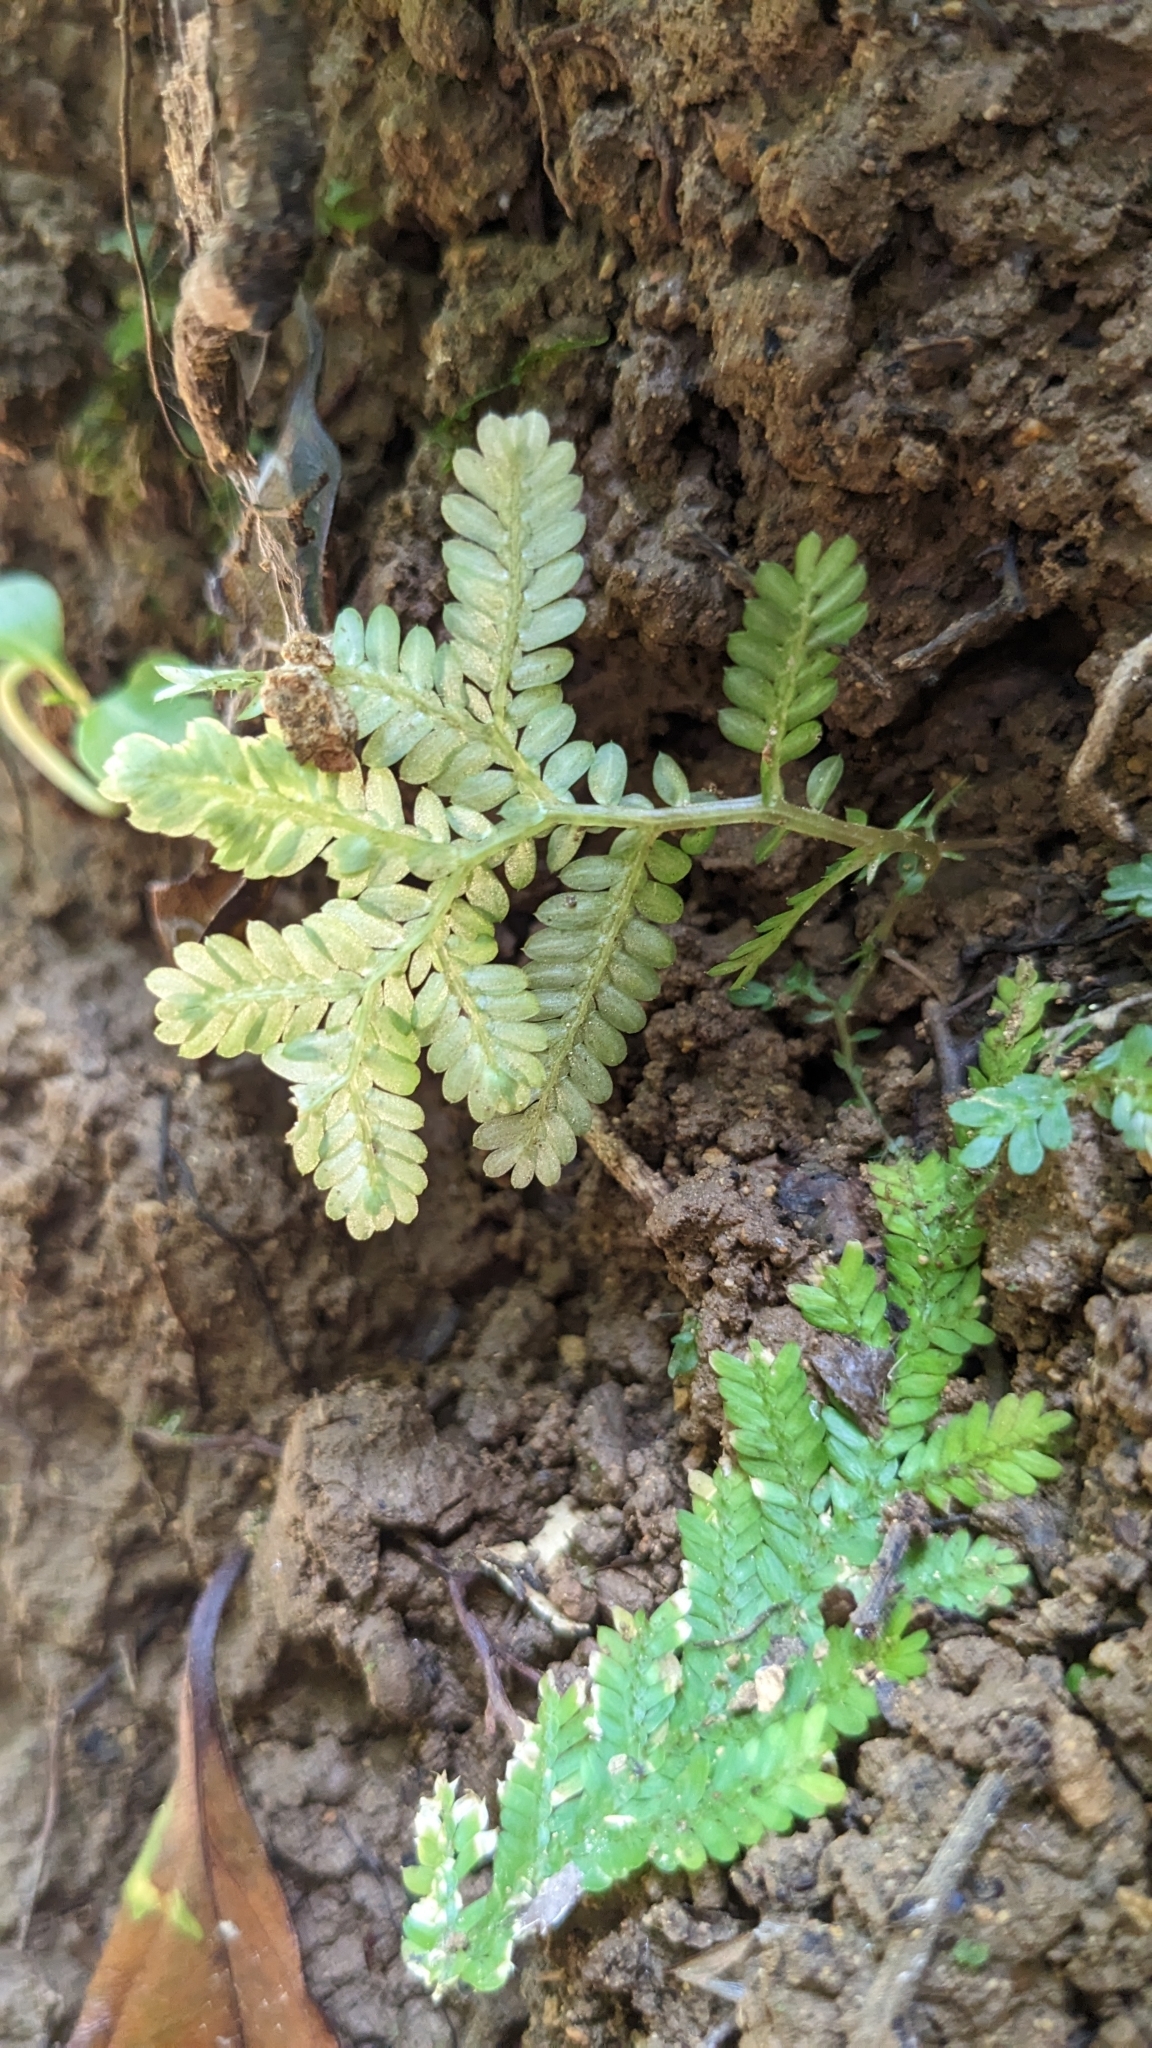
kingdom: Plantae
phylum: Tracheophyta
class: Lycopodiopsida
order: Selaginellales
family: Selaginellaceae
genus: Selaginella
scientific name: Selaginella delicatula
